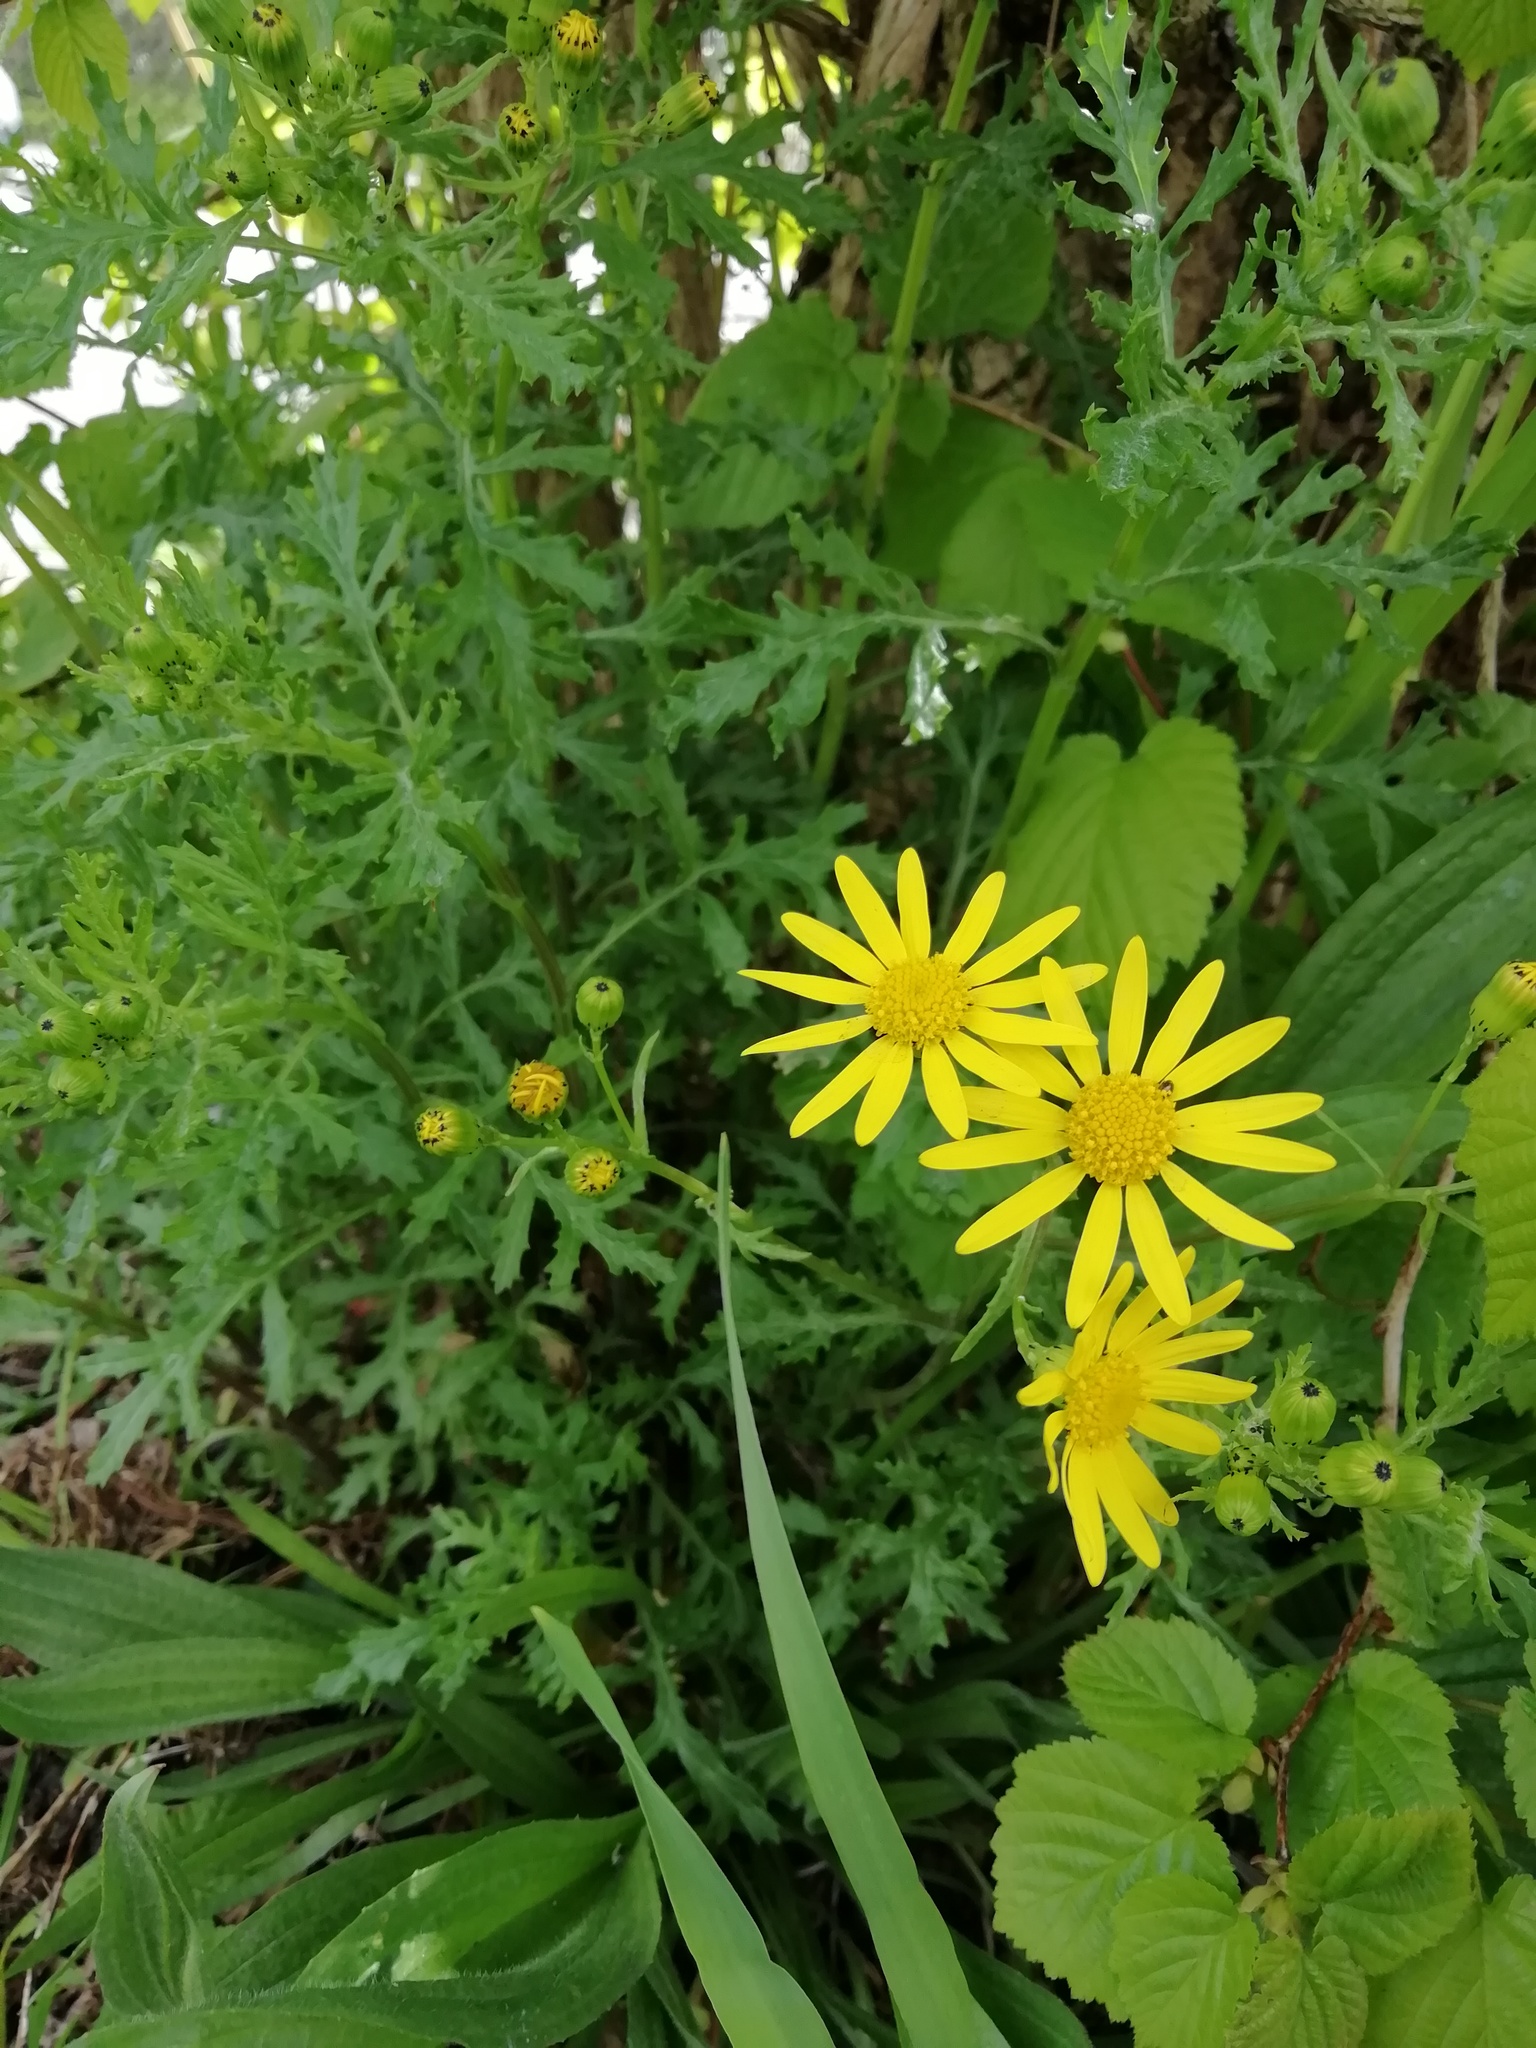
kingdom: Plantae
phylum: Tracheophyta
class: Magnoliopsida
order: Asterales
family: Asteraceae
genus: Senecio
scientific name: Senecio squalidus
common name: Oxford ragwort
